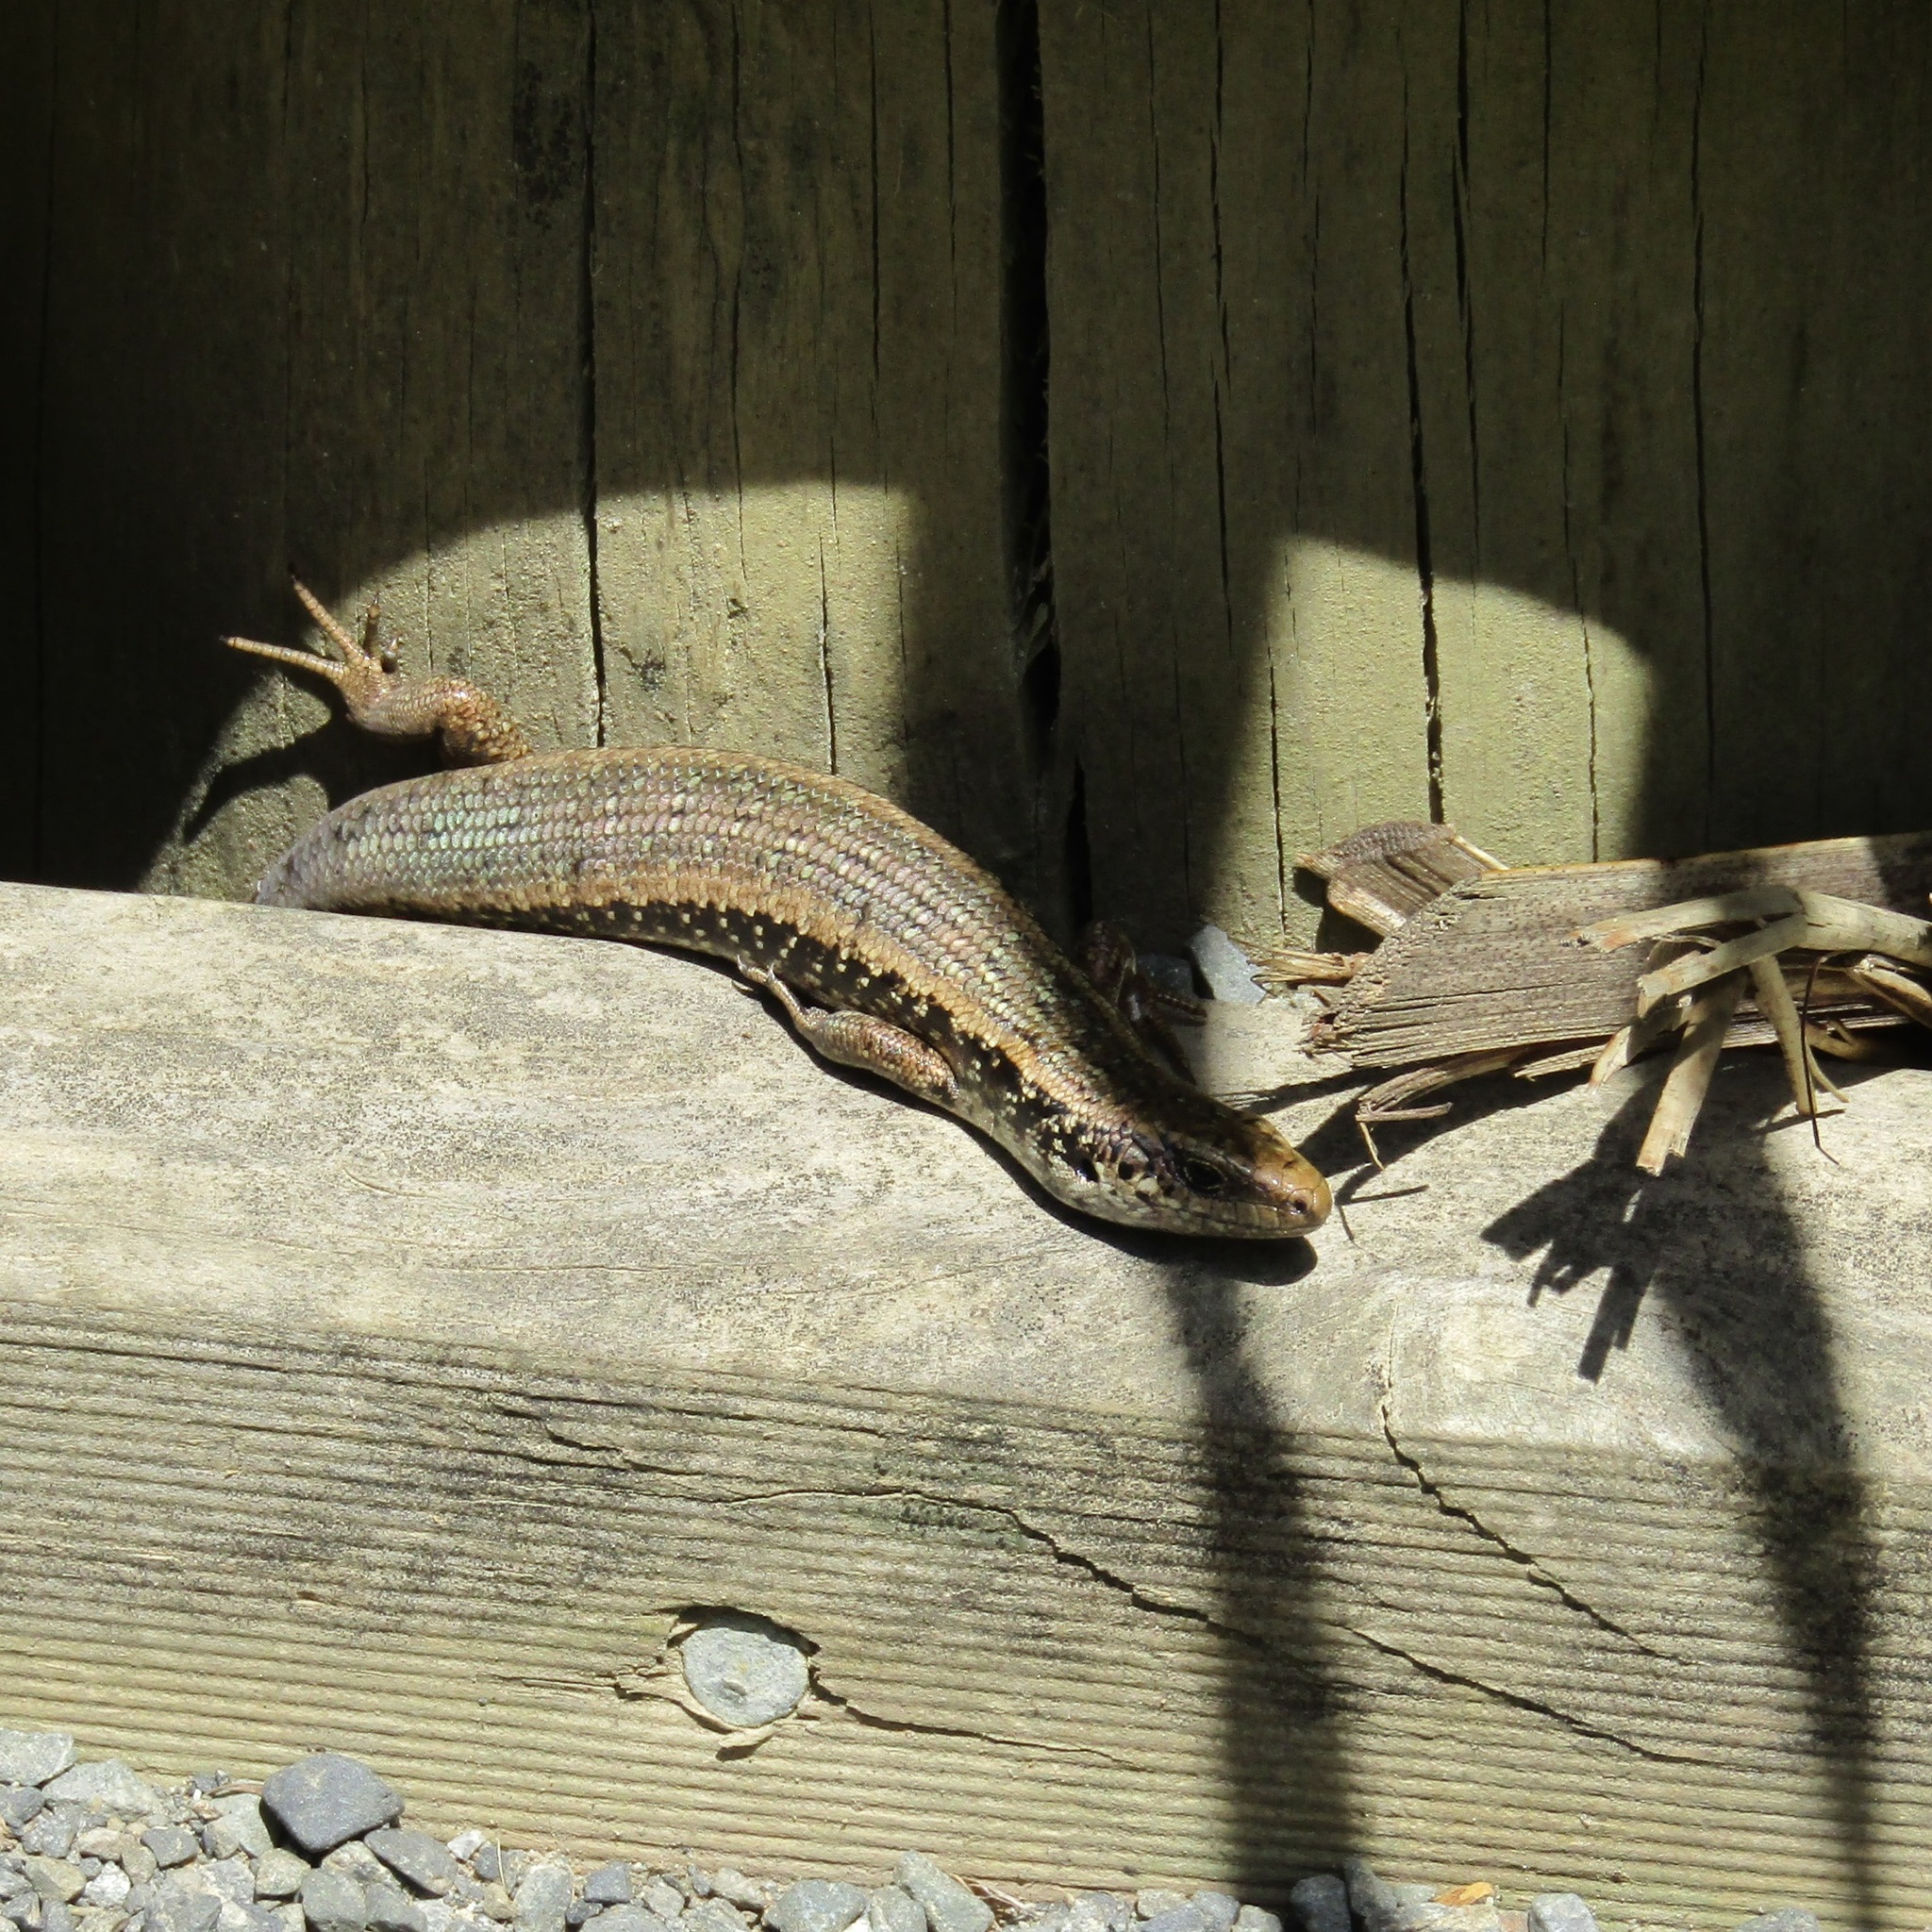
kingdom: Animalia
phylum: Chordata
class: Squamata
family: Scincidae
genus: Oligosoma
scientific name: Oligosoma kokowai
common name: Northern spotted skink
